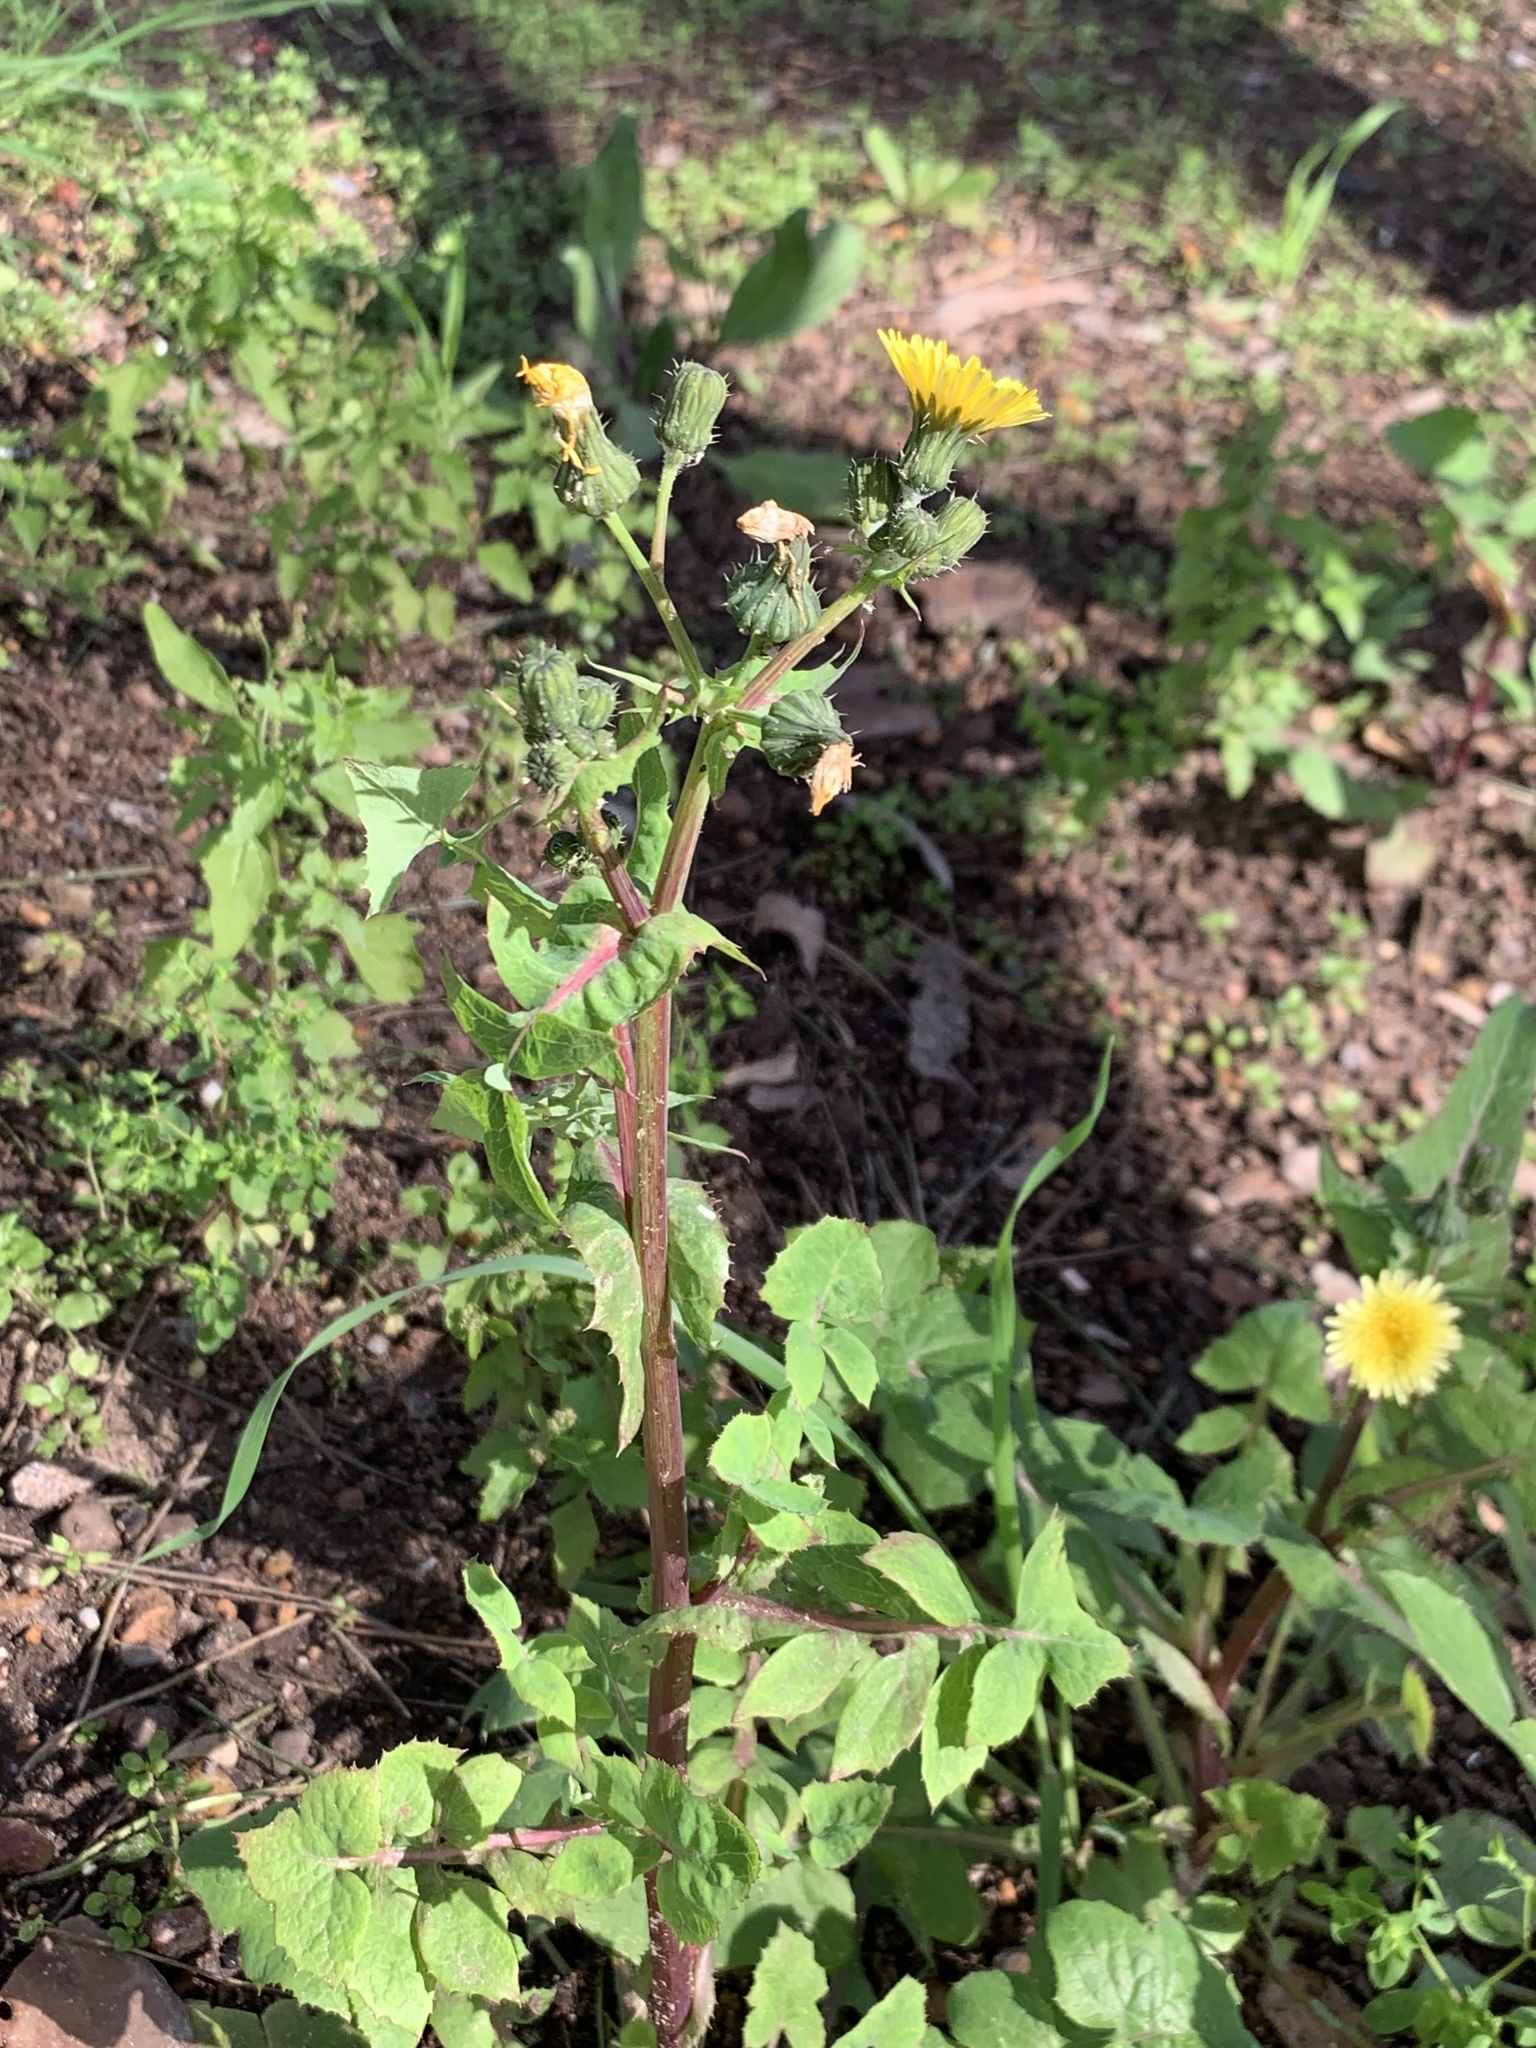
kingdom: Plantae
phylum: Tracheophyta
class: Magnoliopsida
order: Asterales
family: Asteraceae
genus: Sonchus
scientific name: Sonchus oleraceus
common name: Common sowthistle
